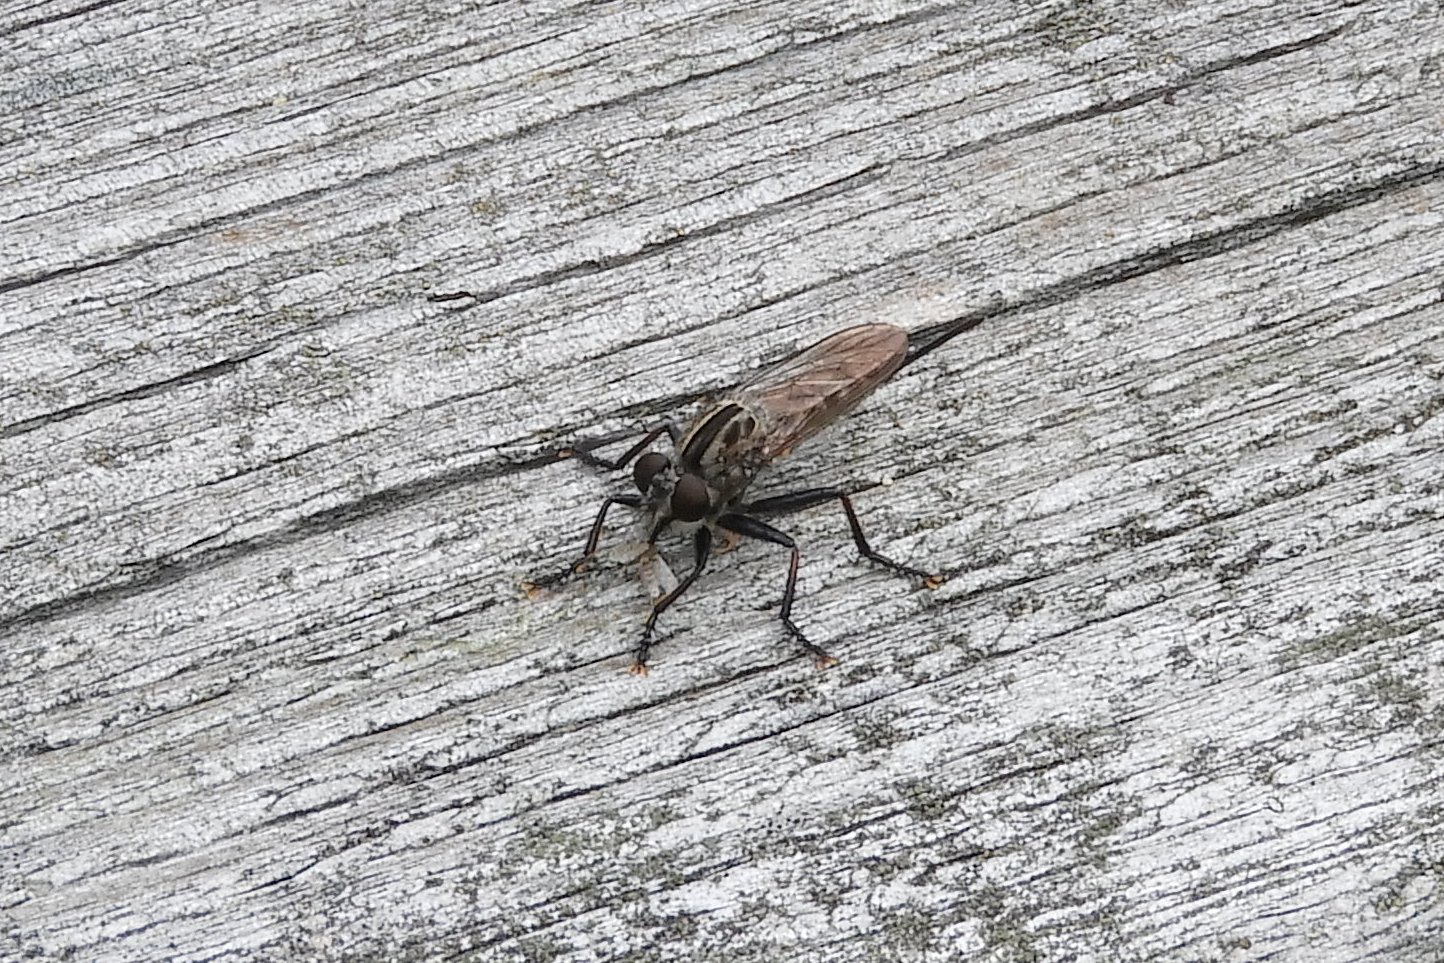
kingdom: Animalia
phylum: Arthropoda
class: Insecta
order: Diptera
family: Asilidae
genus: Efferia
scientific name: Efferia aestuans
